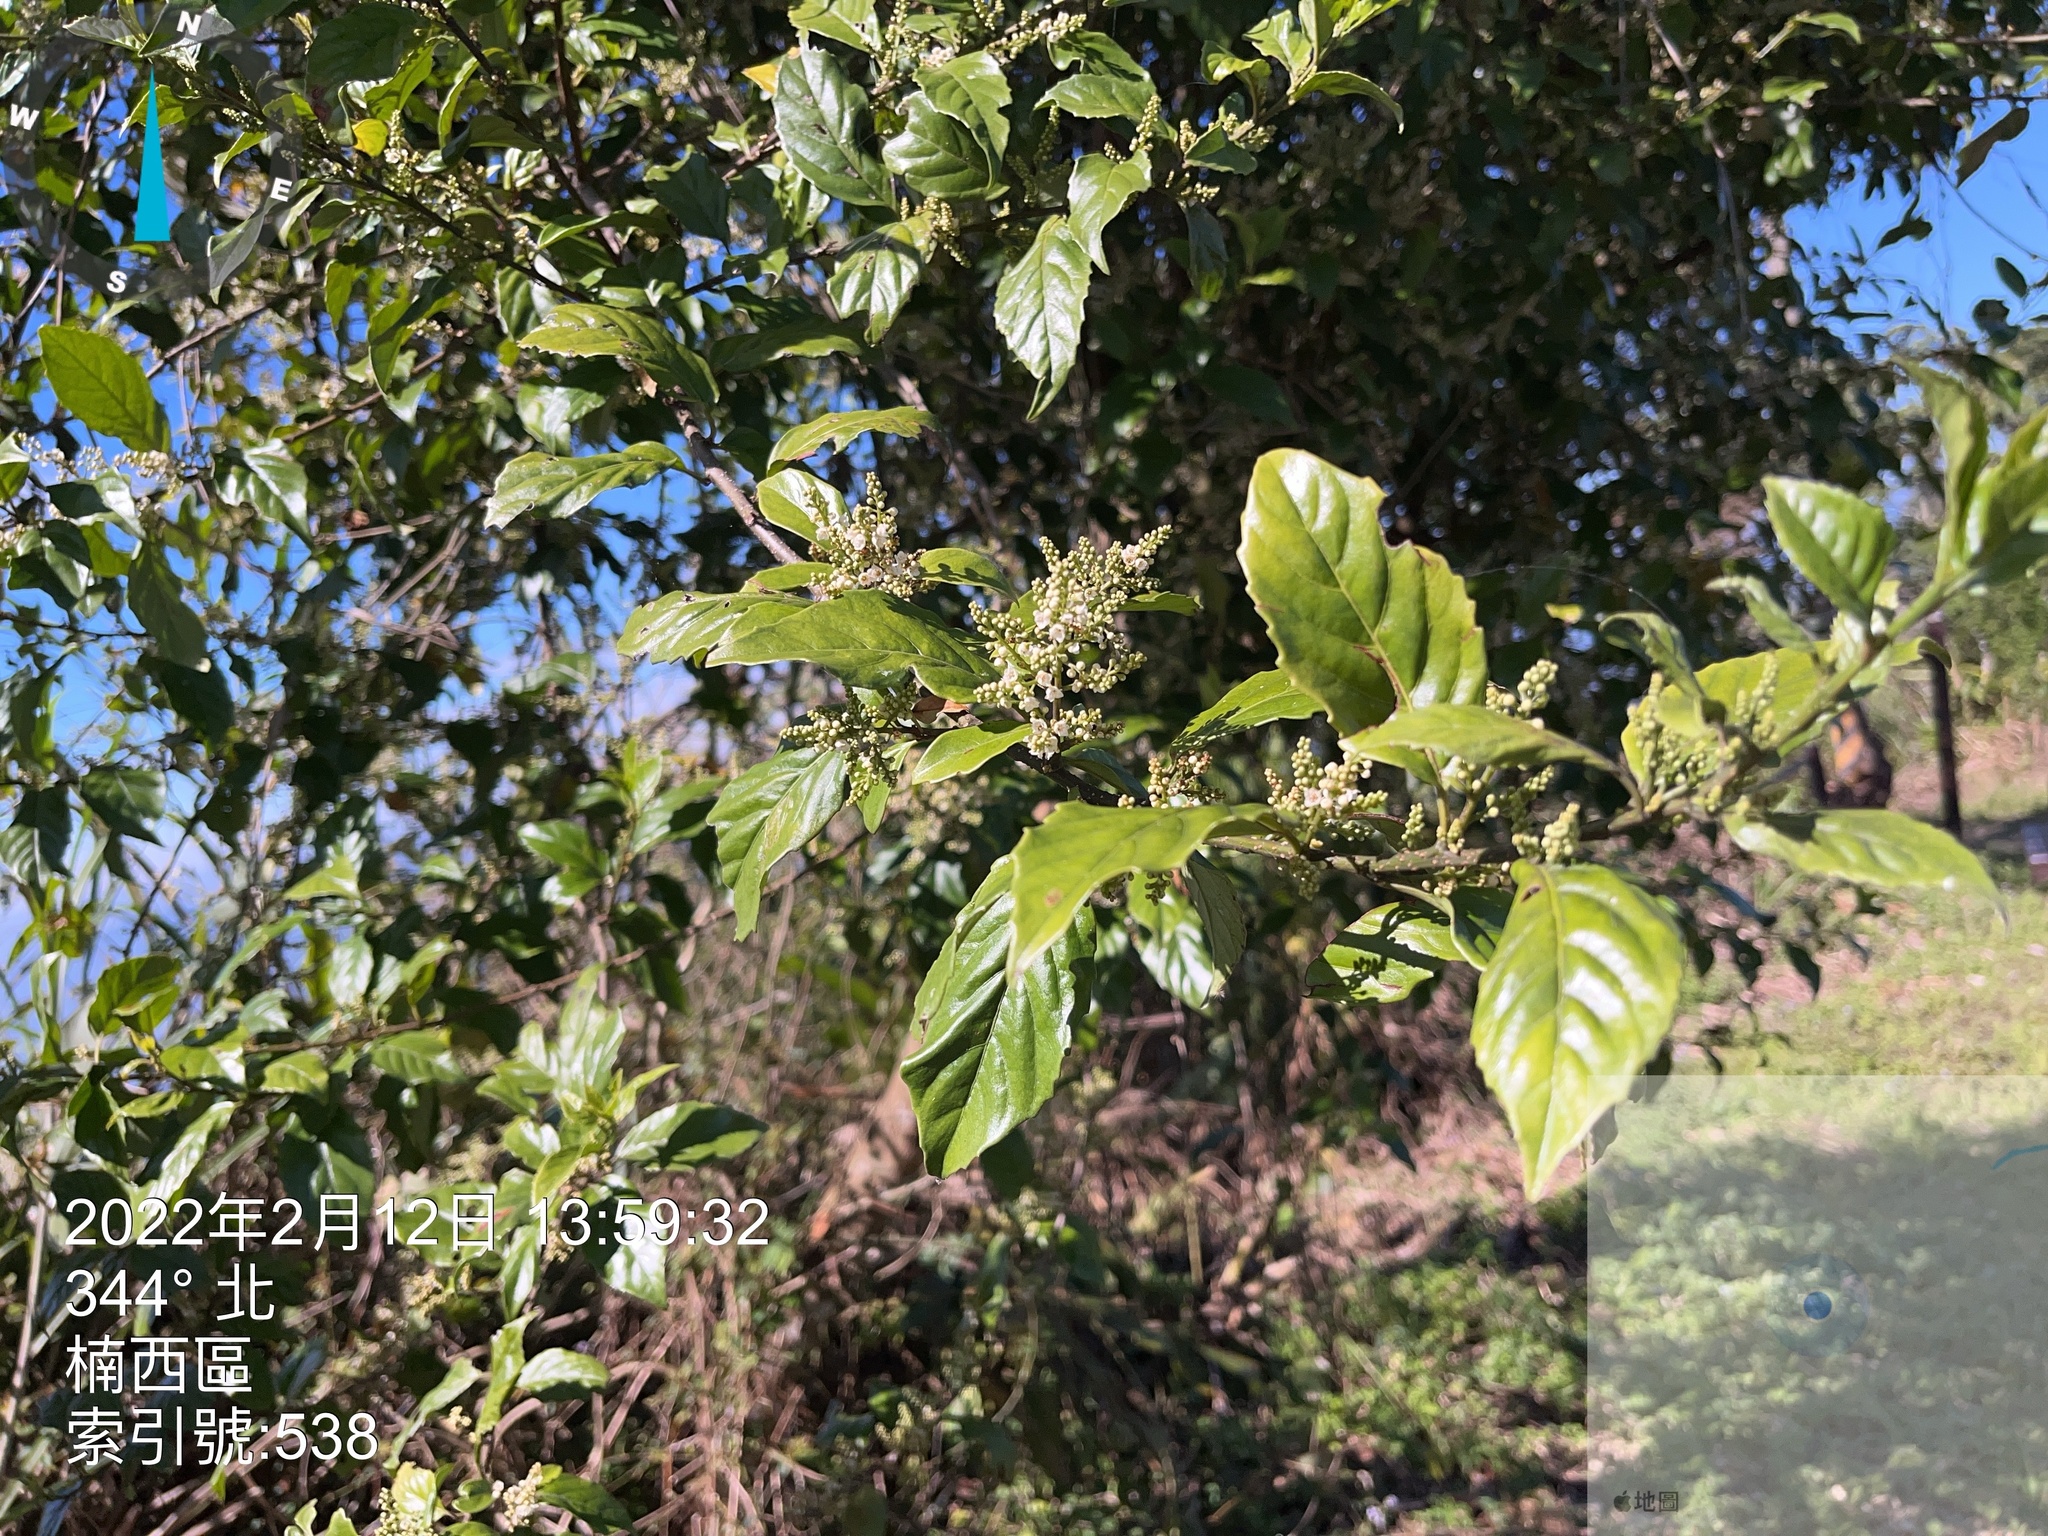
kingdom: Plantae
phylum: Tracheophyta
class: Magnoliopsida
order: Ericales
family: Primulaceae
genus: Maesa
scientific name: Maesa perlaria
